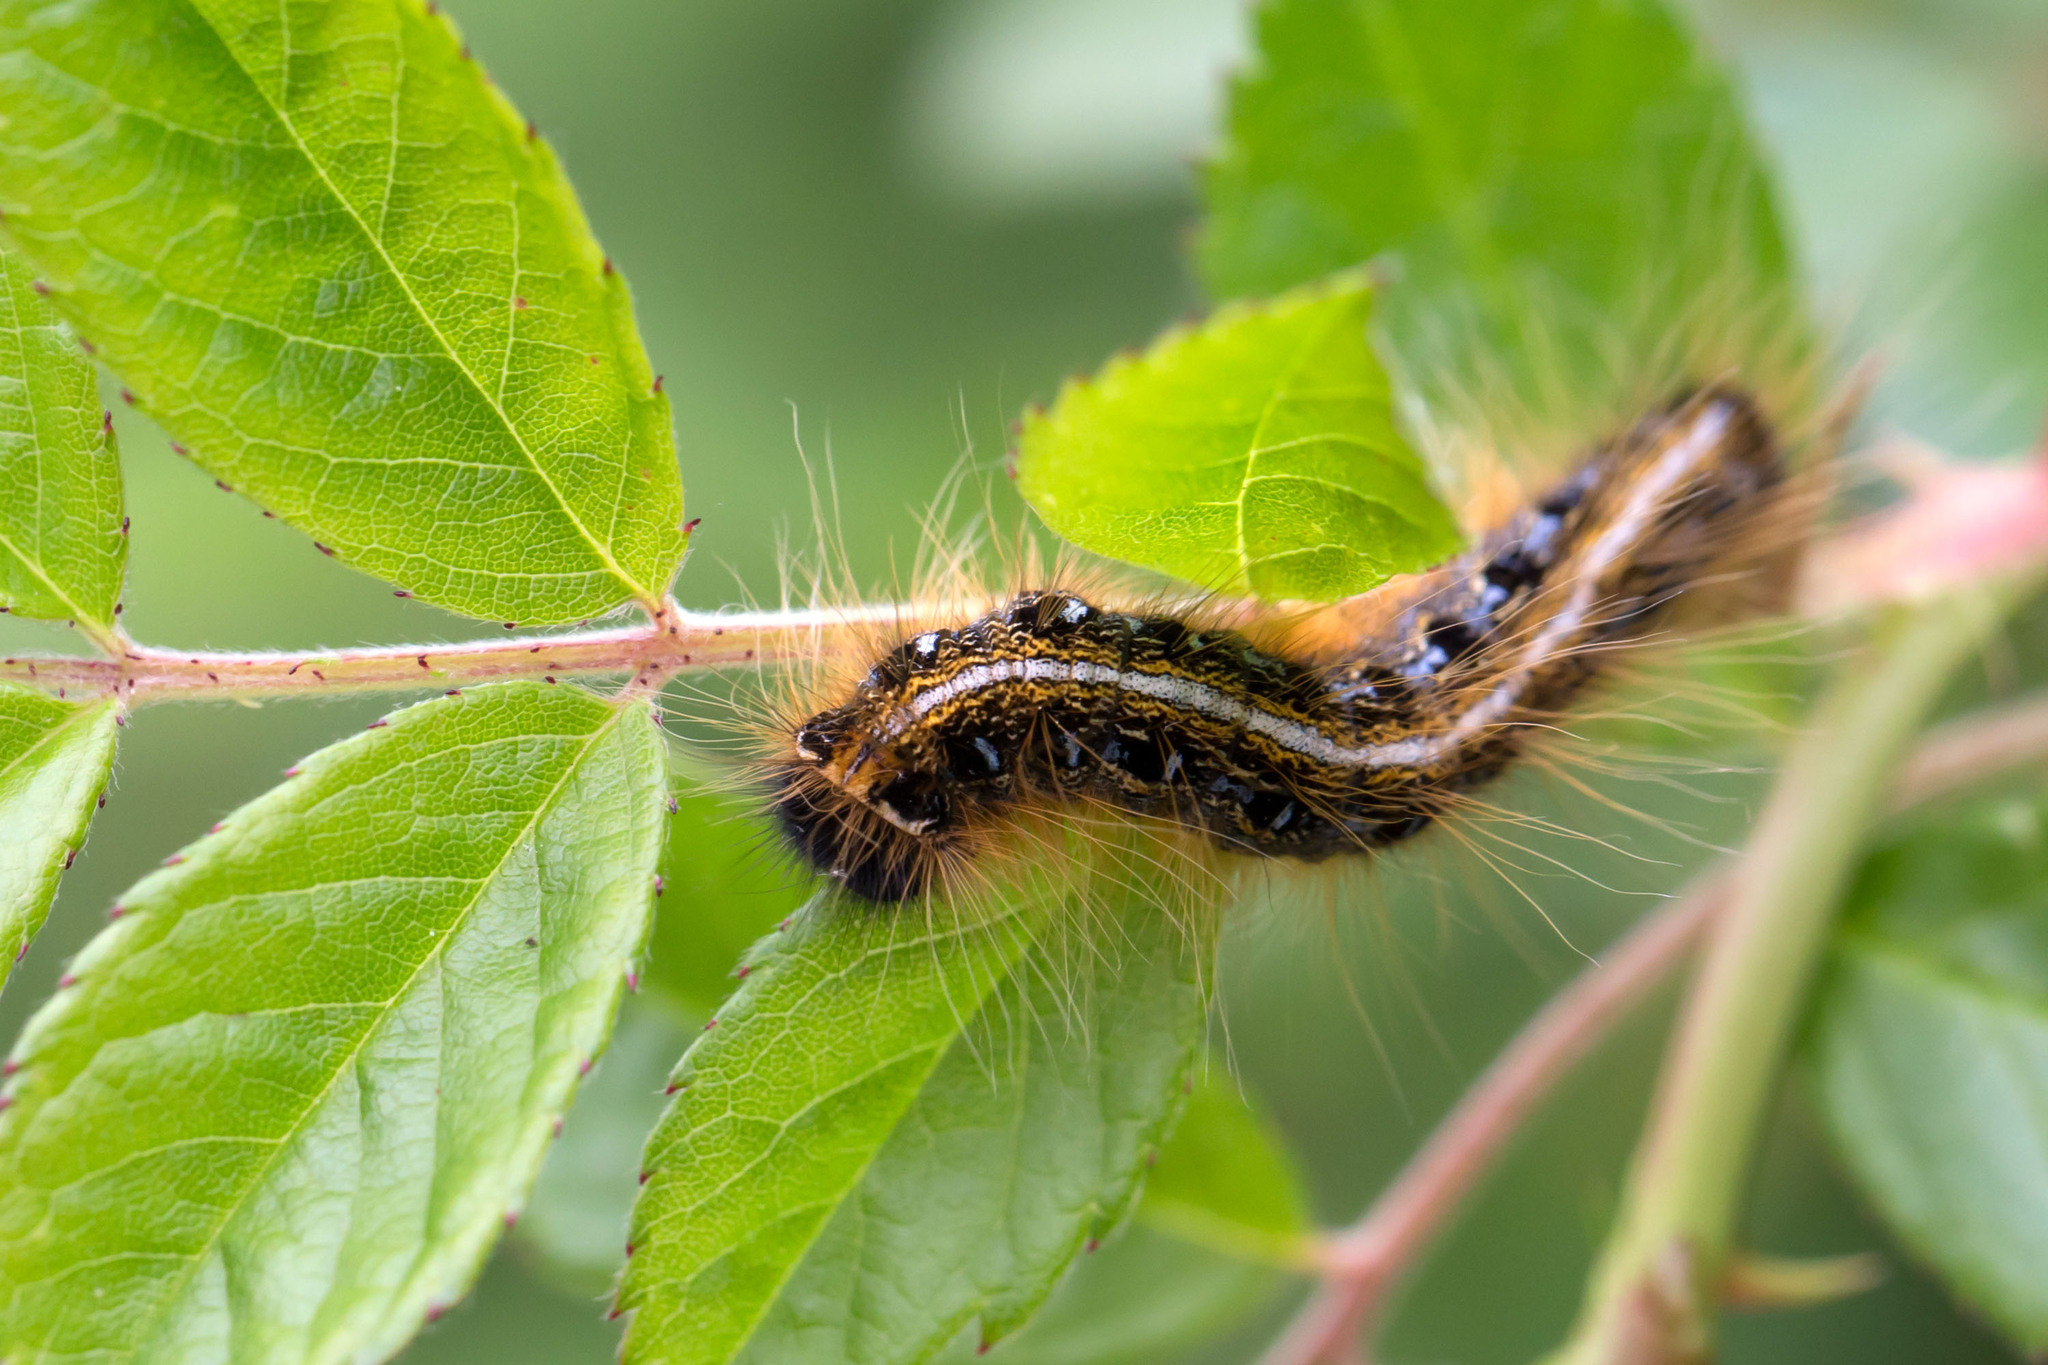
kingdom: Animalia
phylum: Arthropoda
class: Insecta
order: Lepidoptera
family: Lasiocampidae
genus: Malacosoma
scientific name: Malacosoma americana
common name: Eastern tent caterpillar moth
